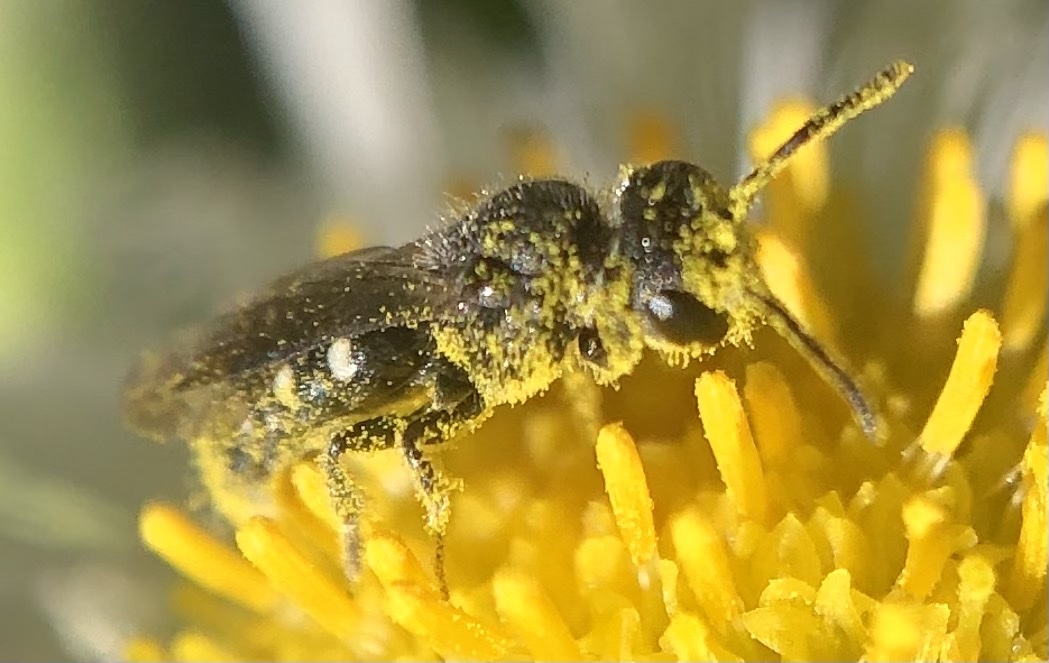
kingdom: Animalia
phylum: Arthropoda
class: Insecta
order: Hymenoptera
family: Megachilidae
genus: Stelis
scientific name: Stelis
